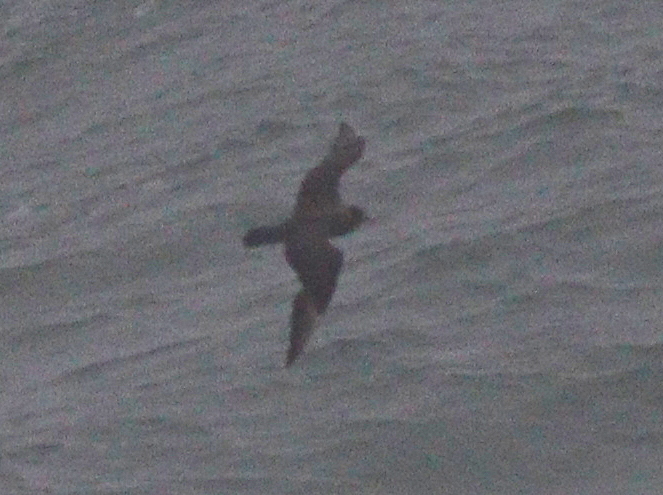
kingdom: Animalia
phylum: Chordata
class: Aves
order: Charadriiformes
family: Stercorariidae
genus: Stercorarius
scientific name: Stercorarius parasiticus
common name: Parasitic jaeger
